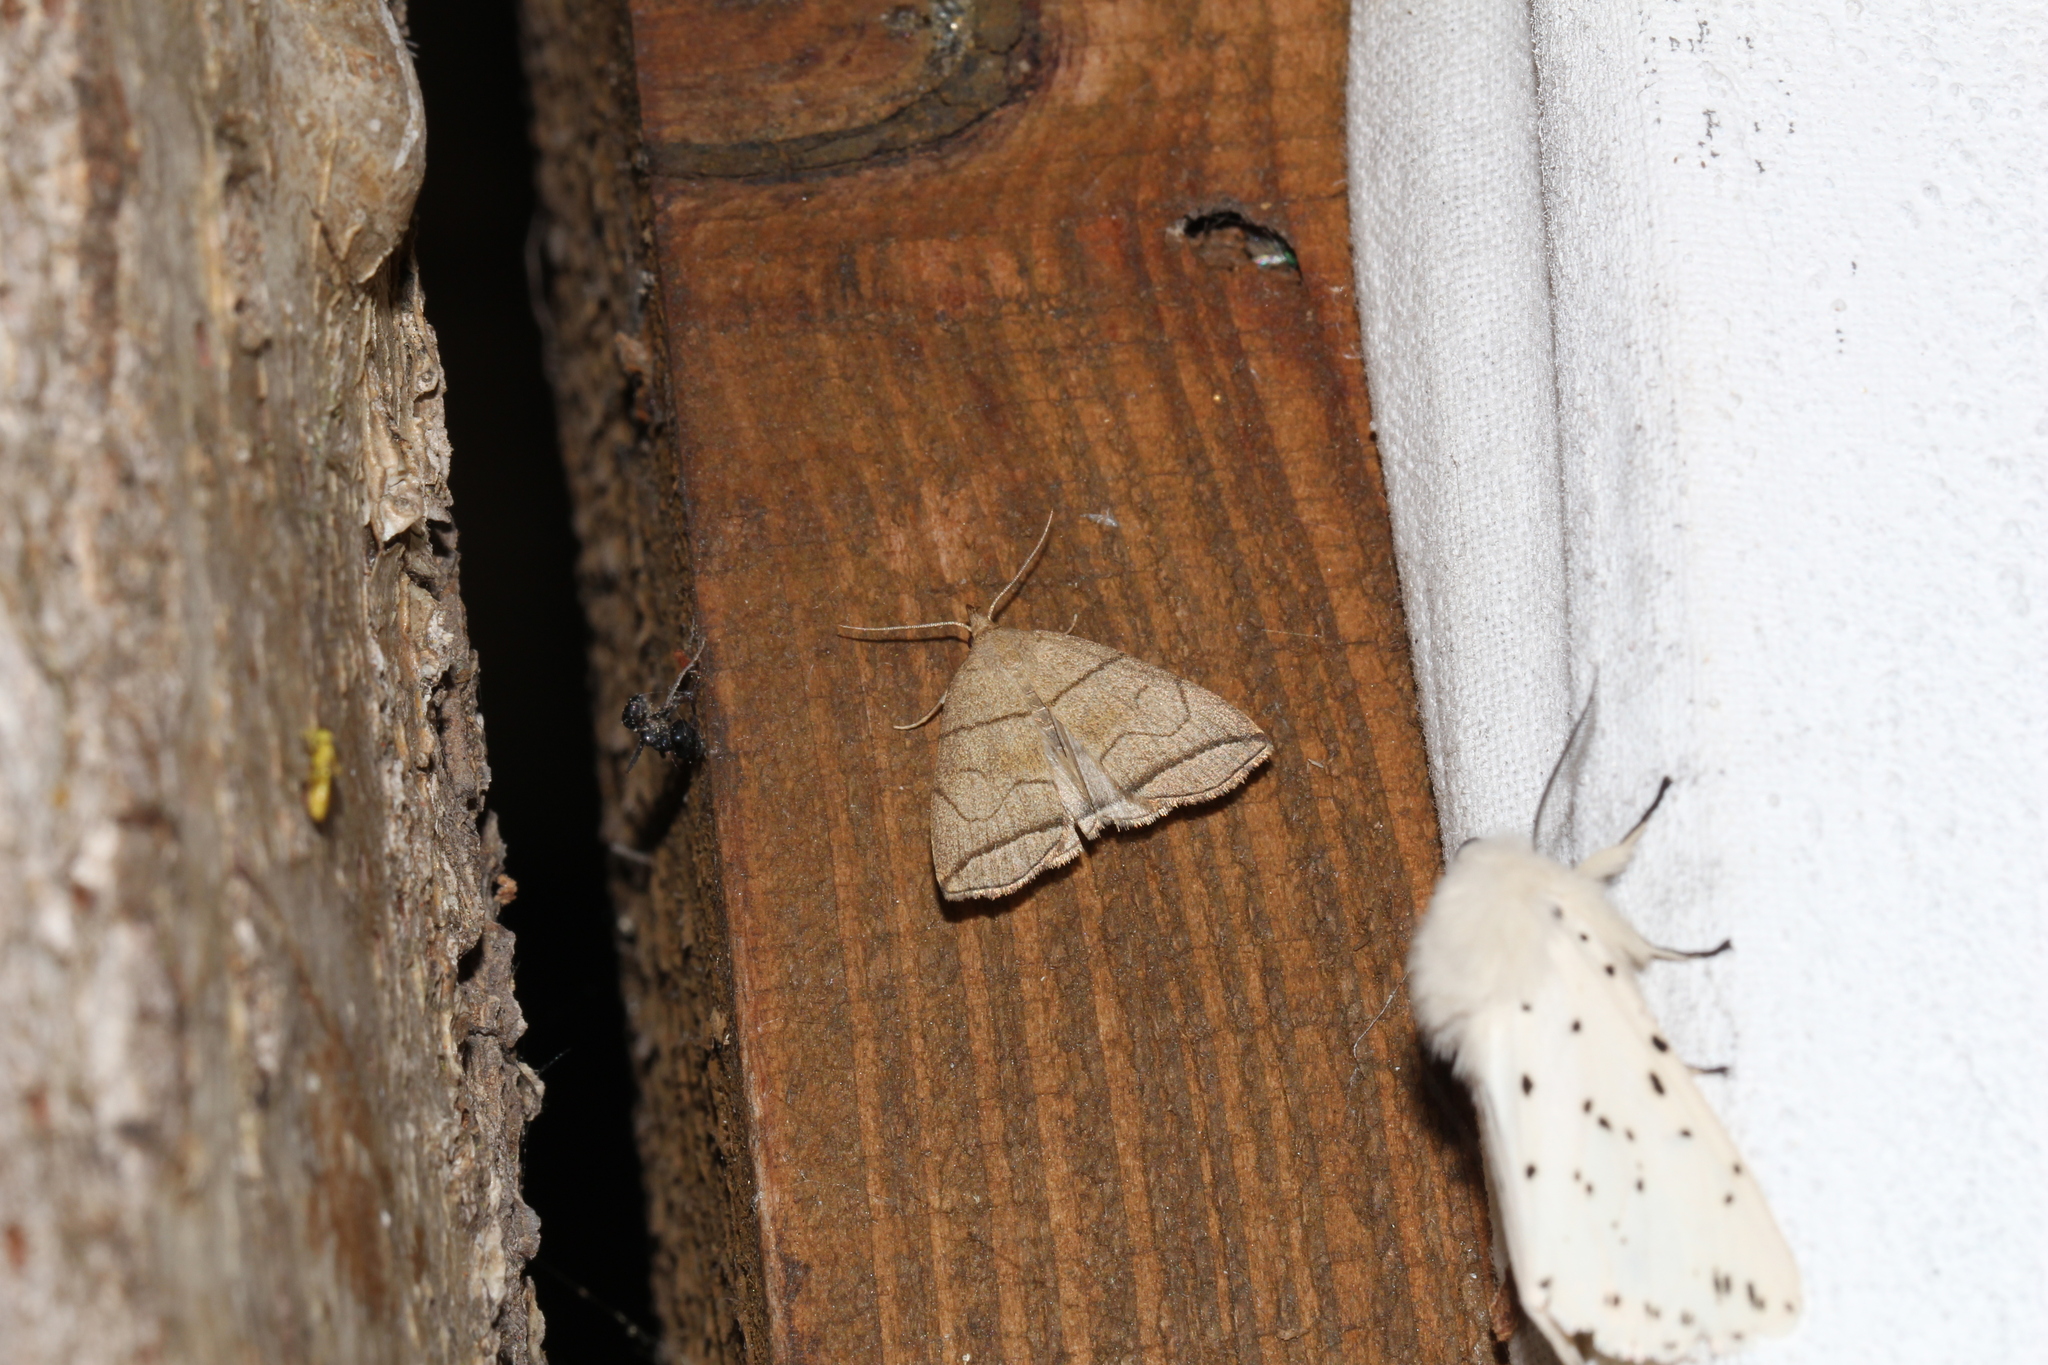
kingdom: Animalia
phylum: Arthropoda
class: Insecta
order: Lepidoptera
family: Erebidae
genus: Herminia
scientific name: Herminia grisealis
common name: Small fan-foot
